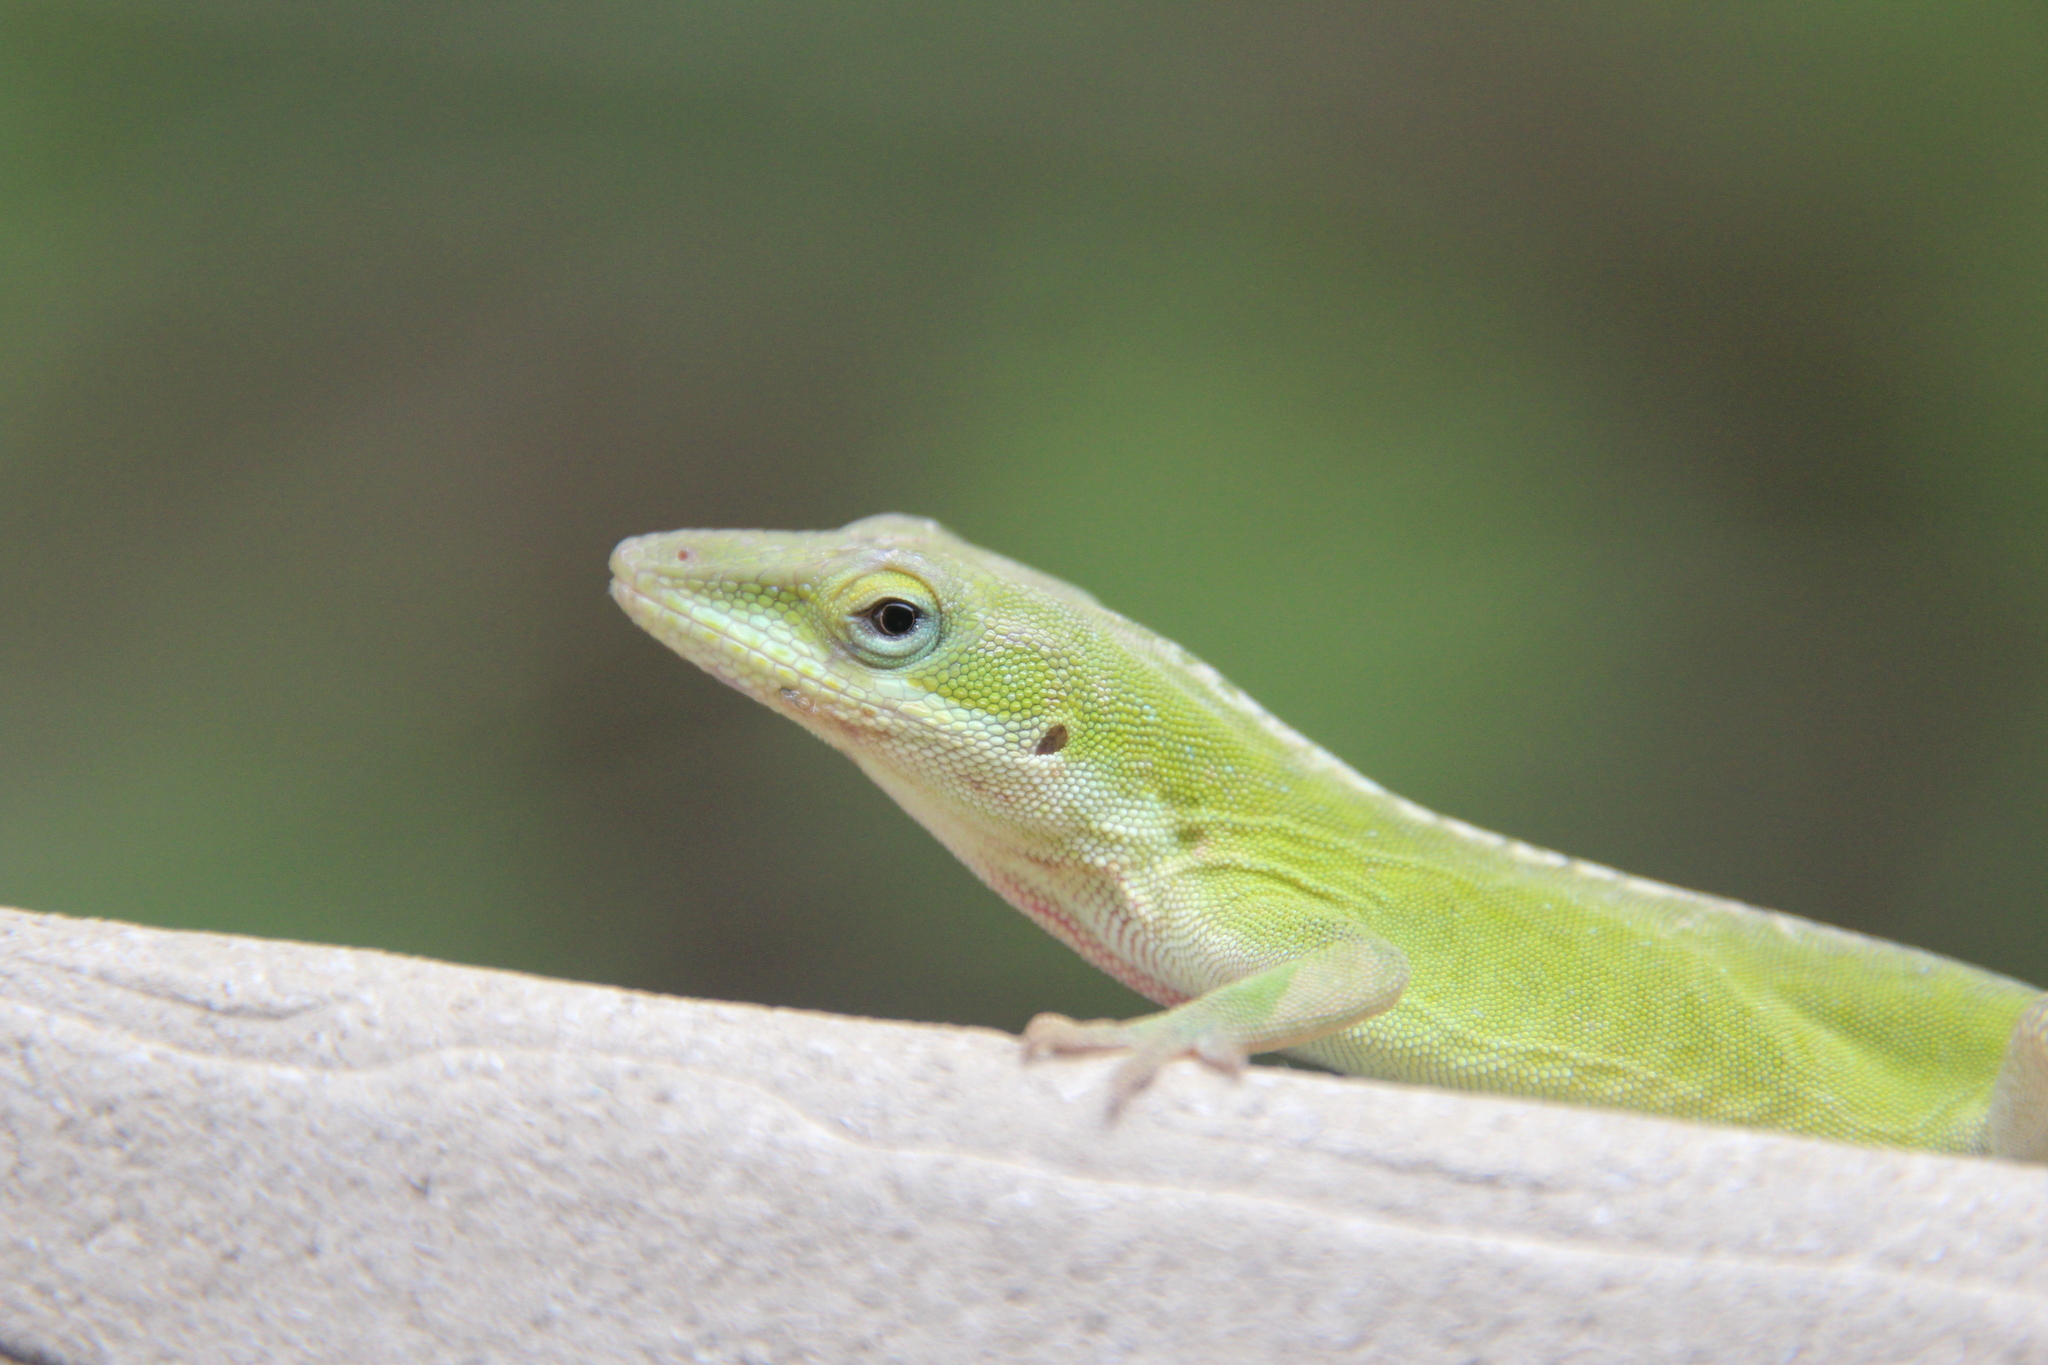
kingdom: Animalia
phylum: Chordata
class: Squamata
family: Dactyloidae
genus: Anolis
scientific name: Anolis carolinensis
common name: Green anole
